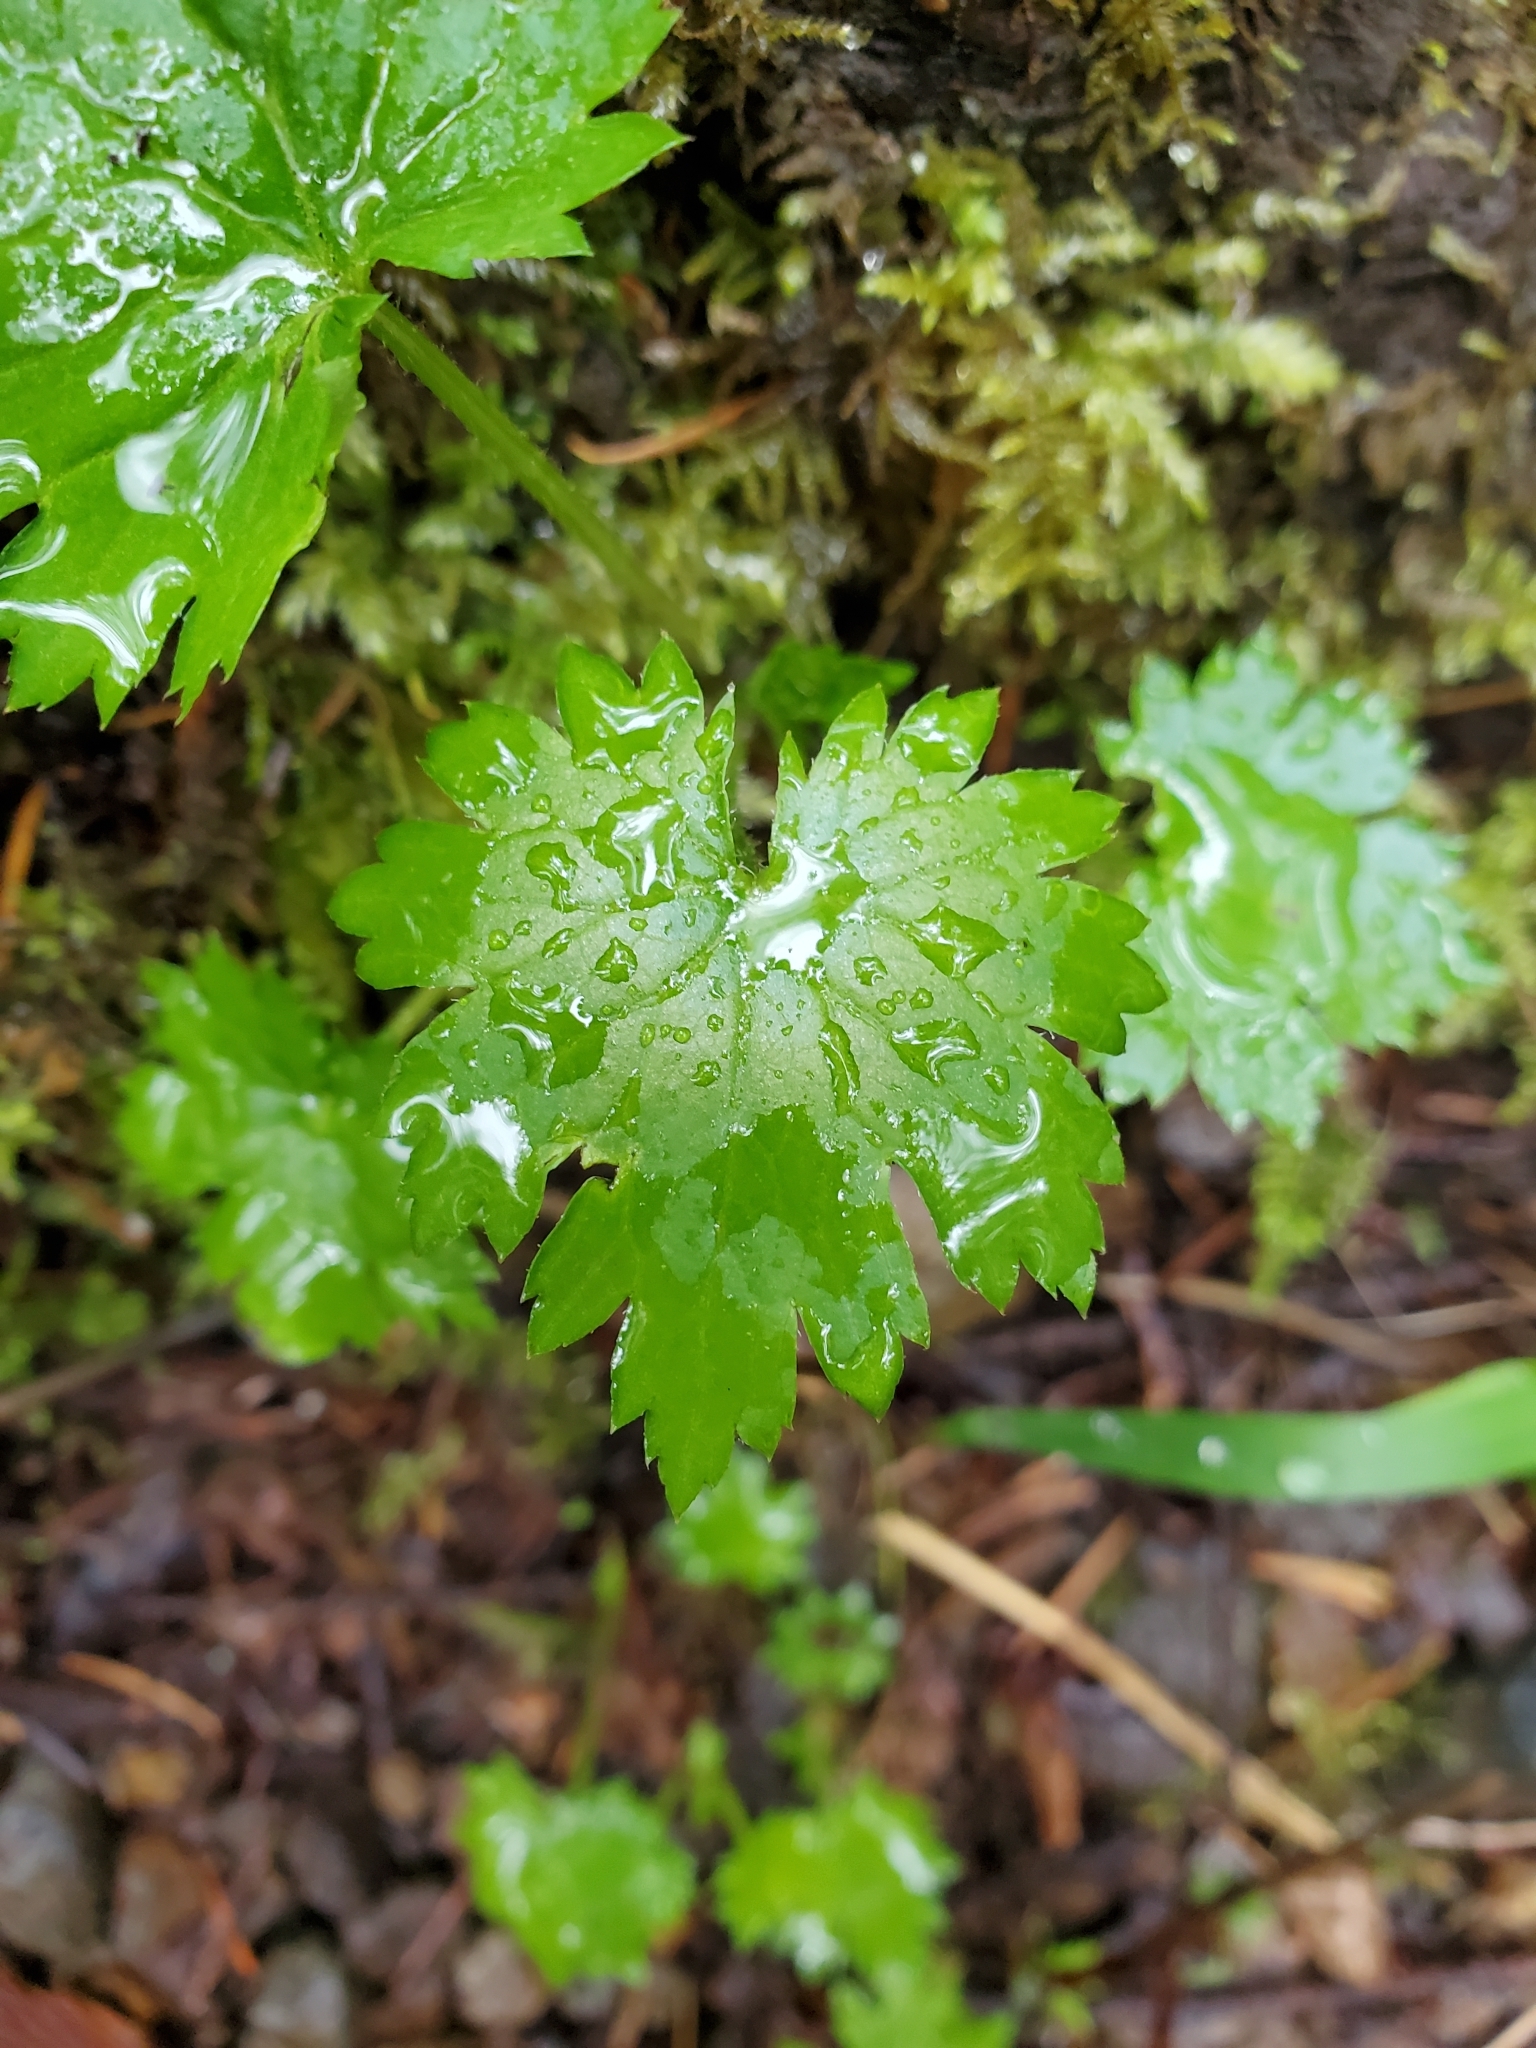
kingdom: Plantae
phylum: Tracheophyta
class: Magnoliopsida
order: Saxifragales
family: Saxifragaceae
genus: Boykinia
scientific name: Boykinia occidentalis
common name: Coast boykinia
